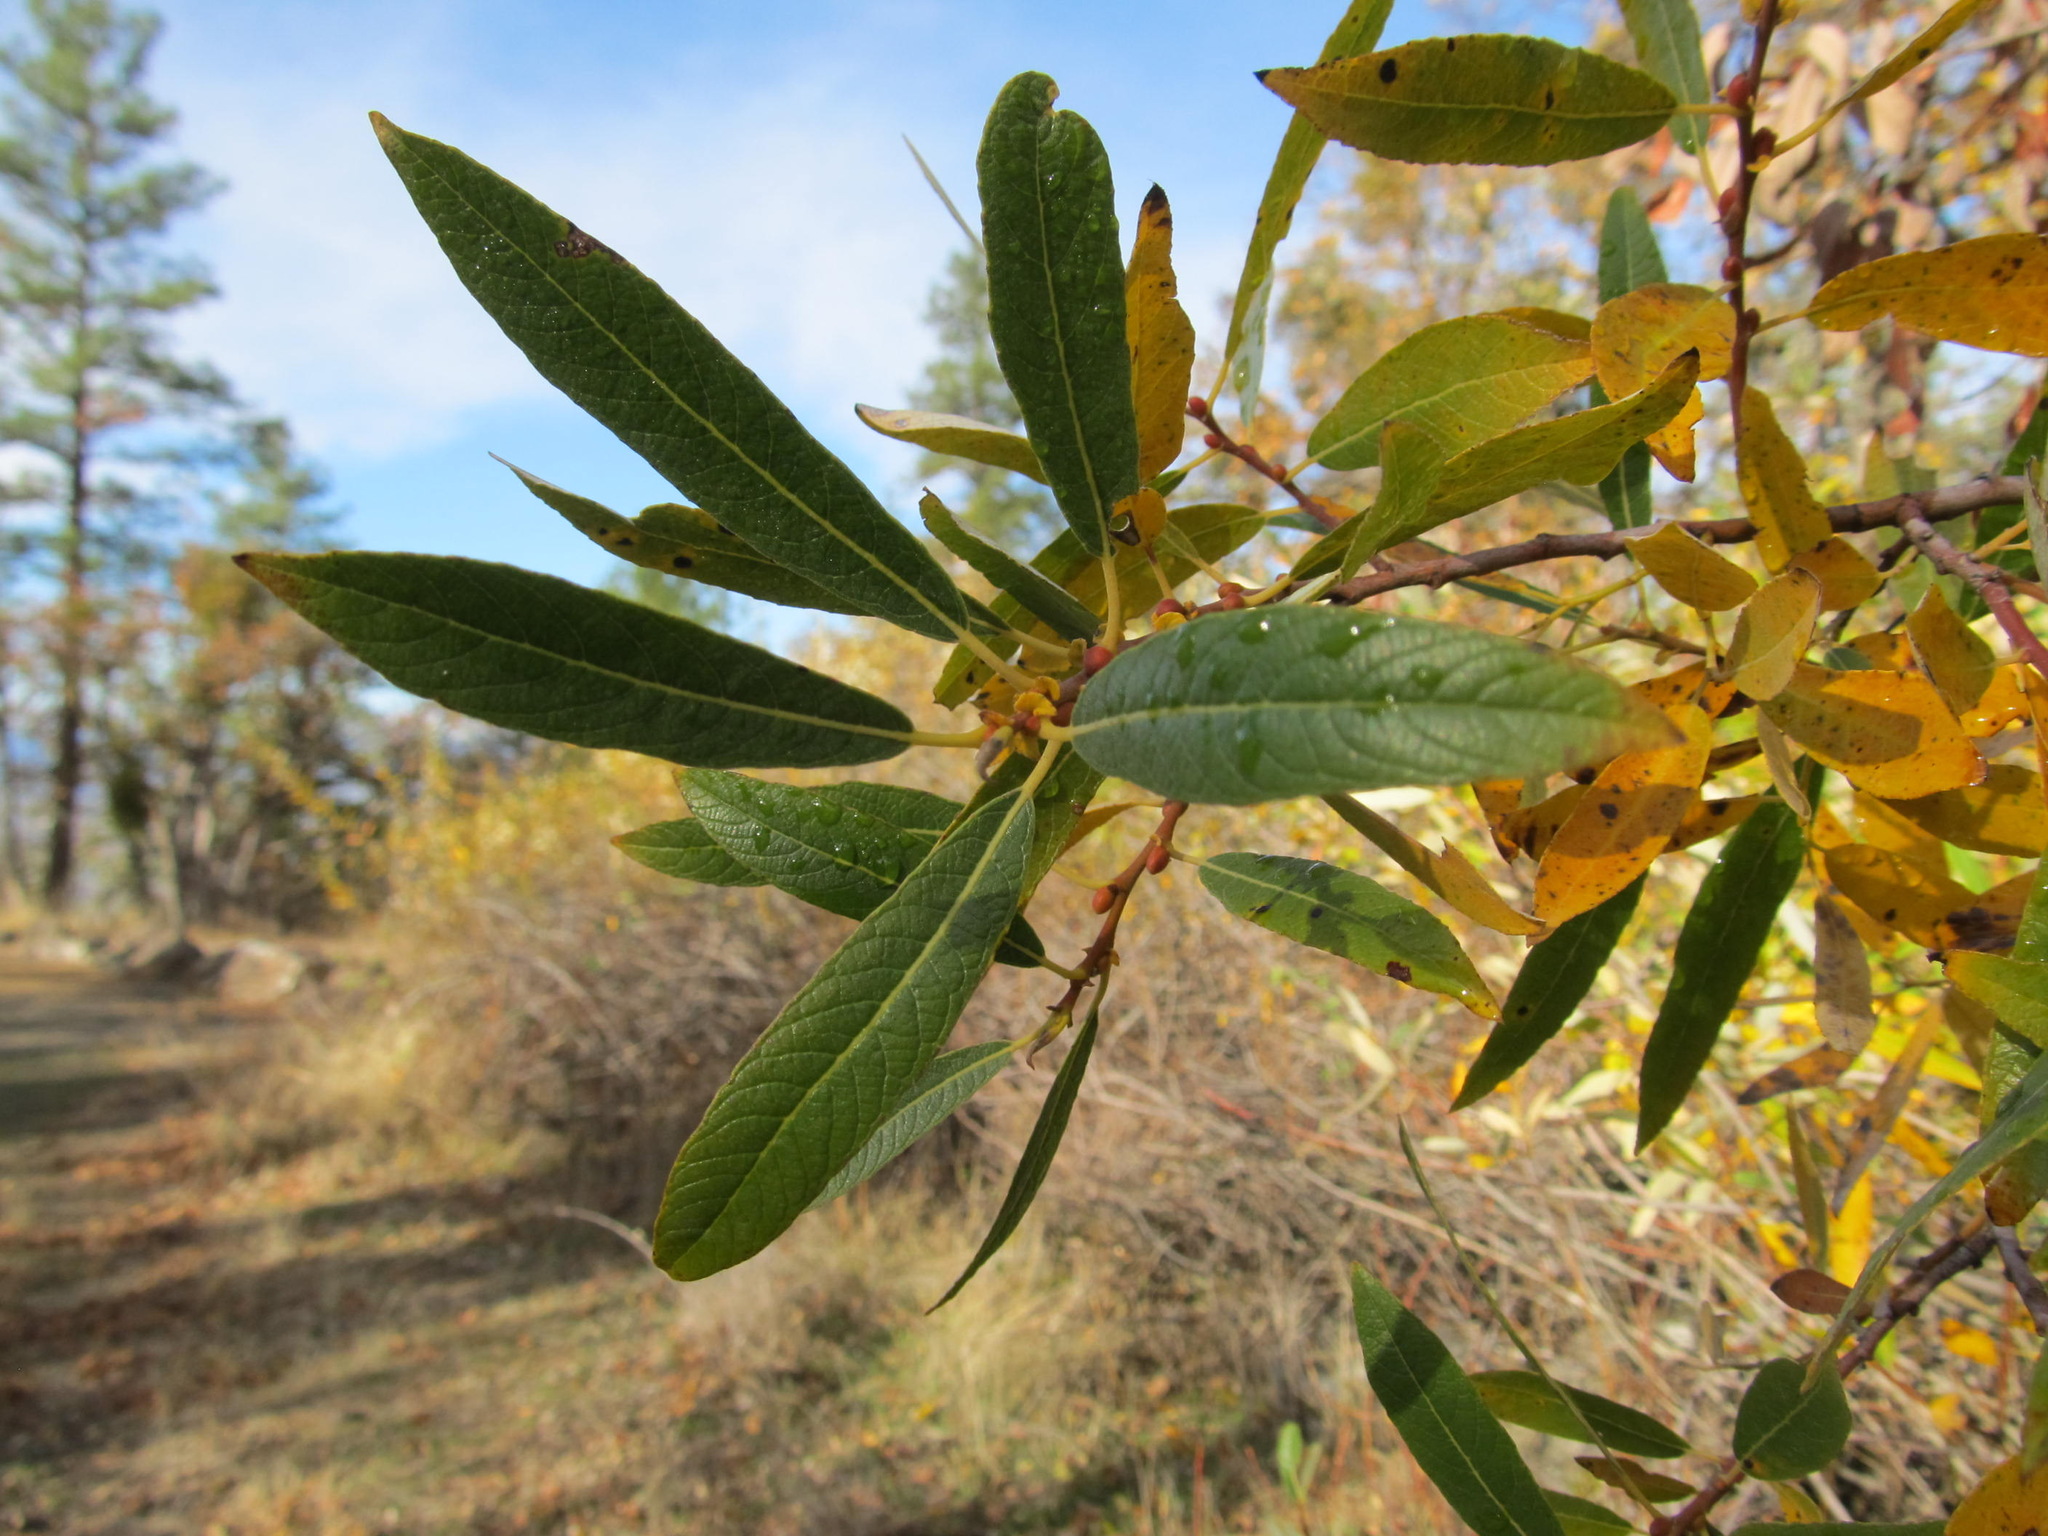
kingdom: Plantae
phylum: Tracheophyta
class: Magnoliopsida
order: Malpighiales
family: Salicaceae
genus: Salix
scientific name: Salix lasiolepis
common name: Arroyo willow
